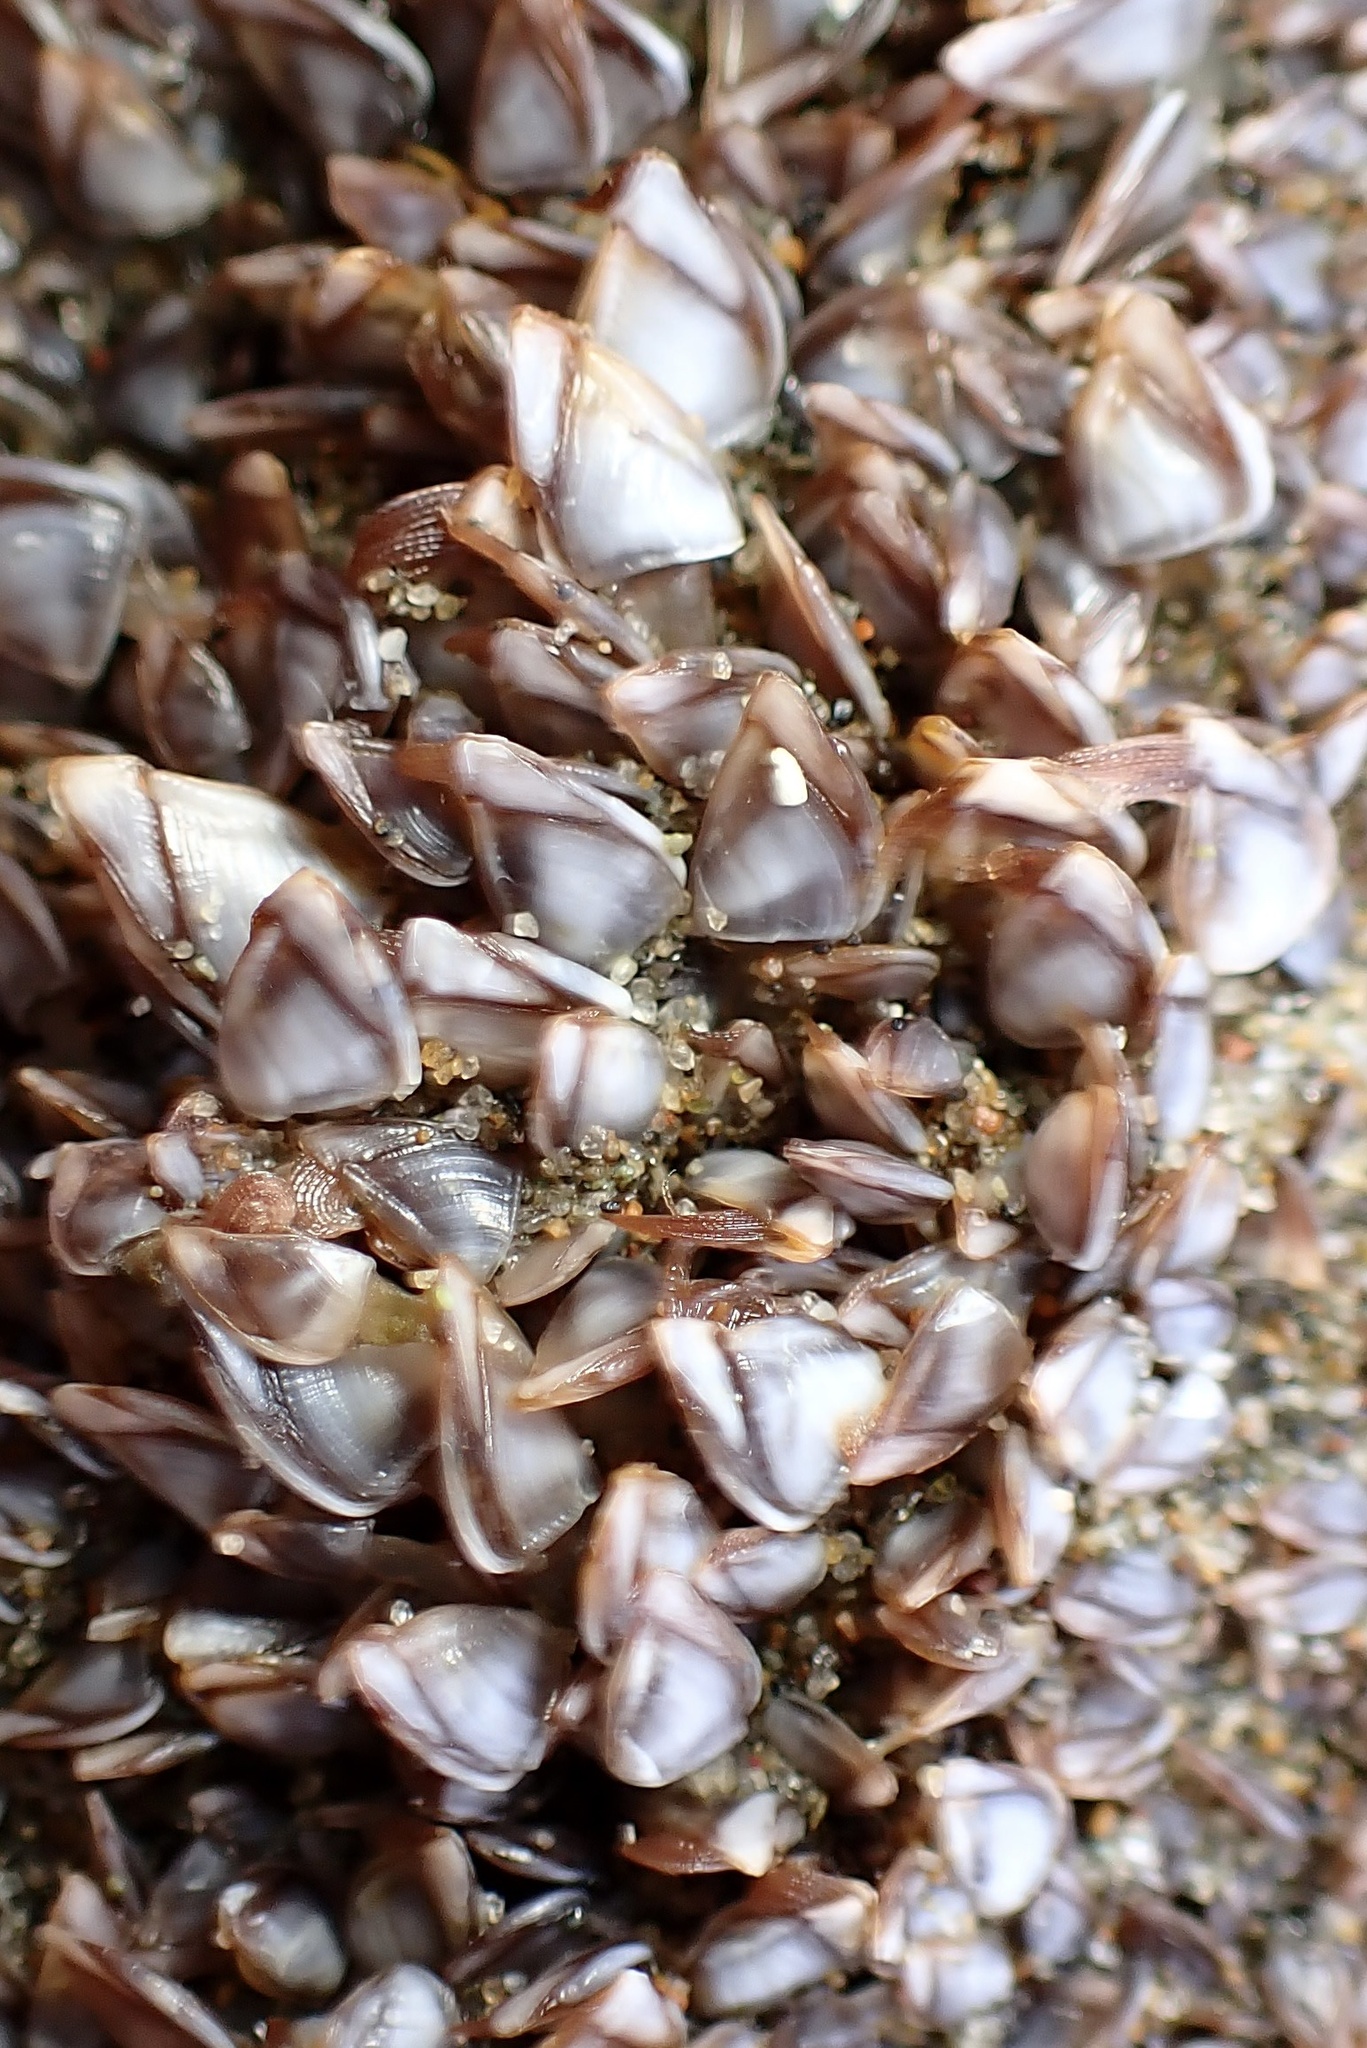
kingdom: Animalia
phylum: Arthropoda
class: Maxillopoda
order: Pedunculata
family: Lepadidae
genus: Lepas
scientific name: Lepas pacifica
